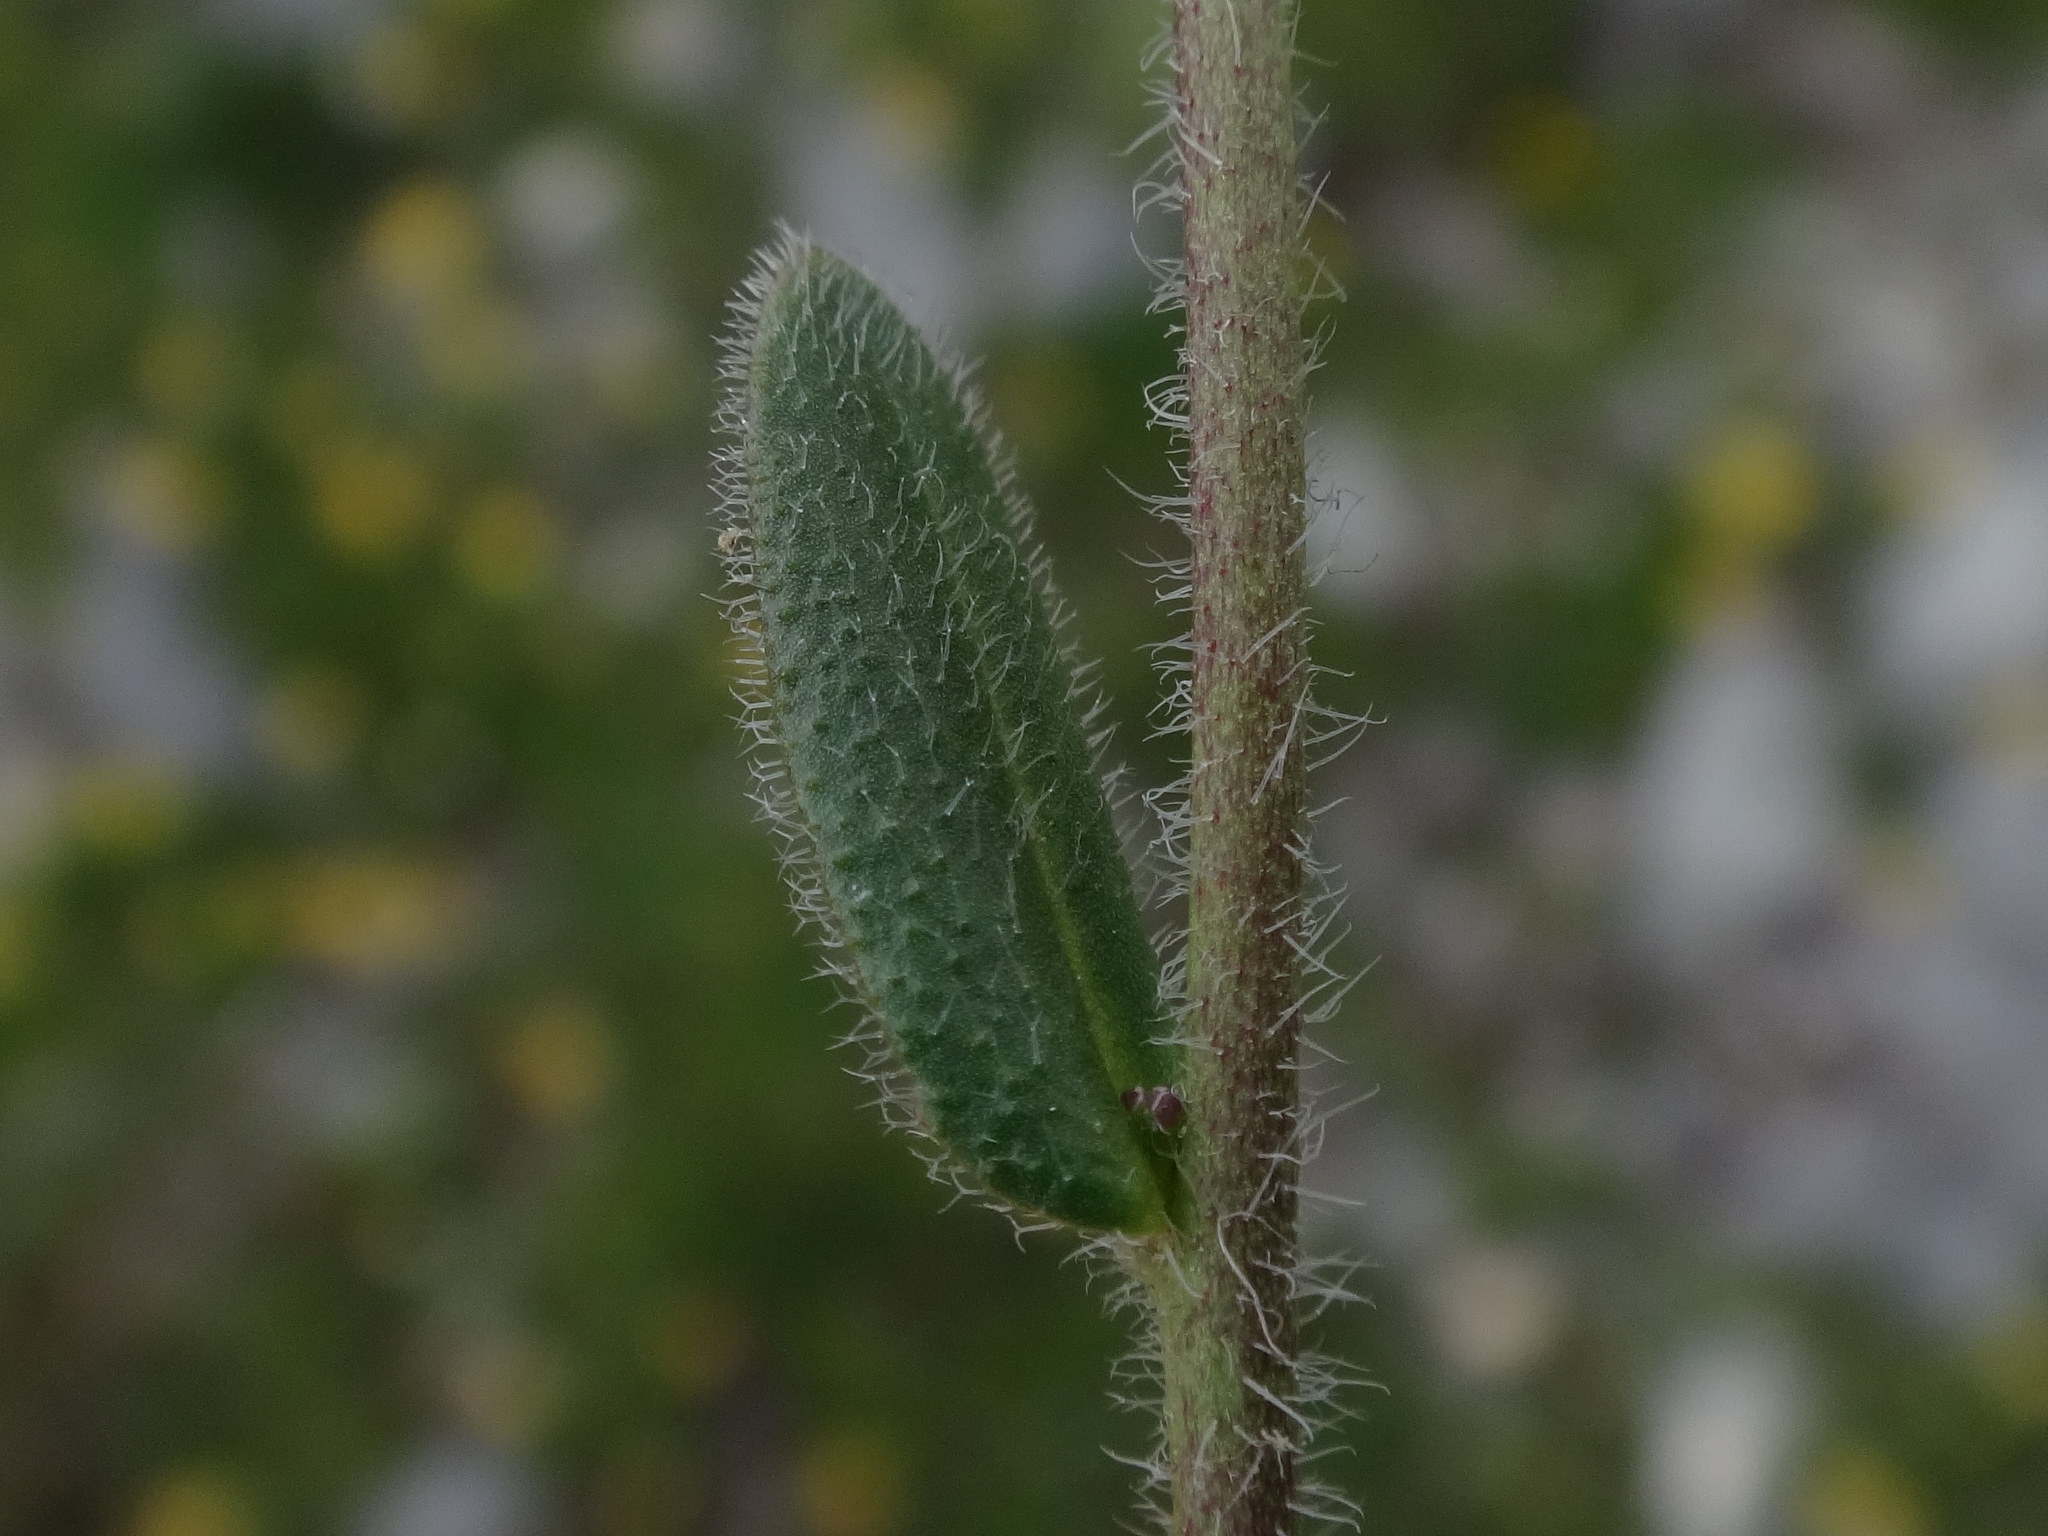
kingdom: Plantae
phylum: Tracheophyta
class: Magnoliopsida
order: Brassicales
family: Brassicaceae
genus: Arabis
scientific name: Arabis ciliata
